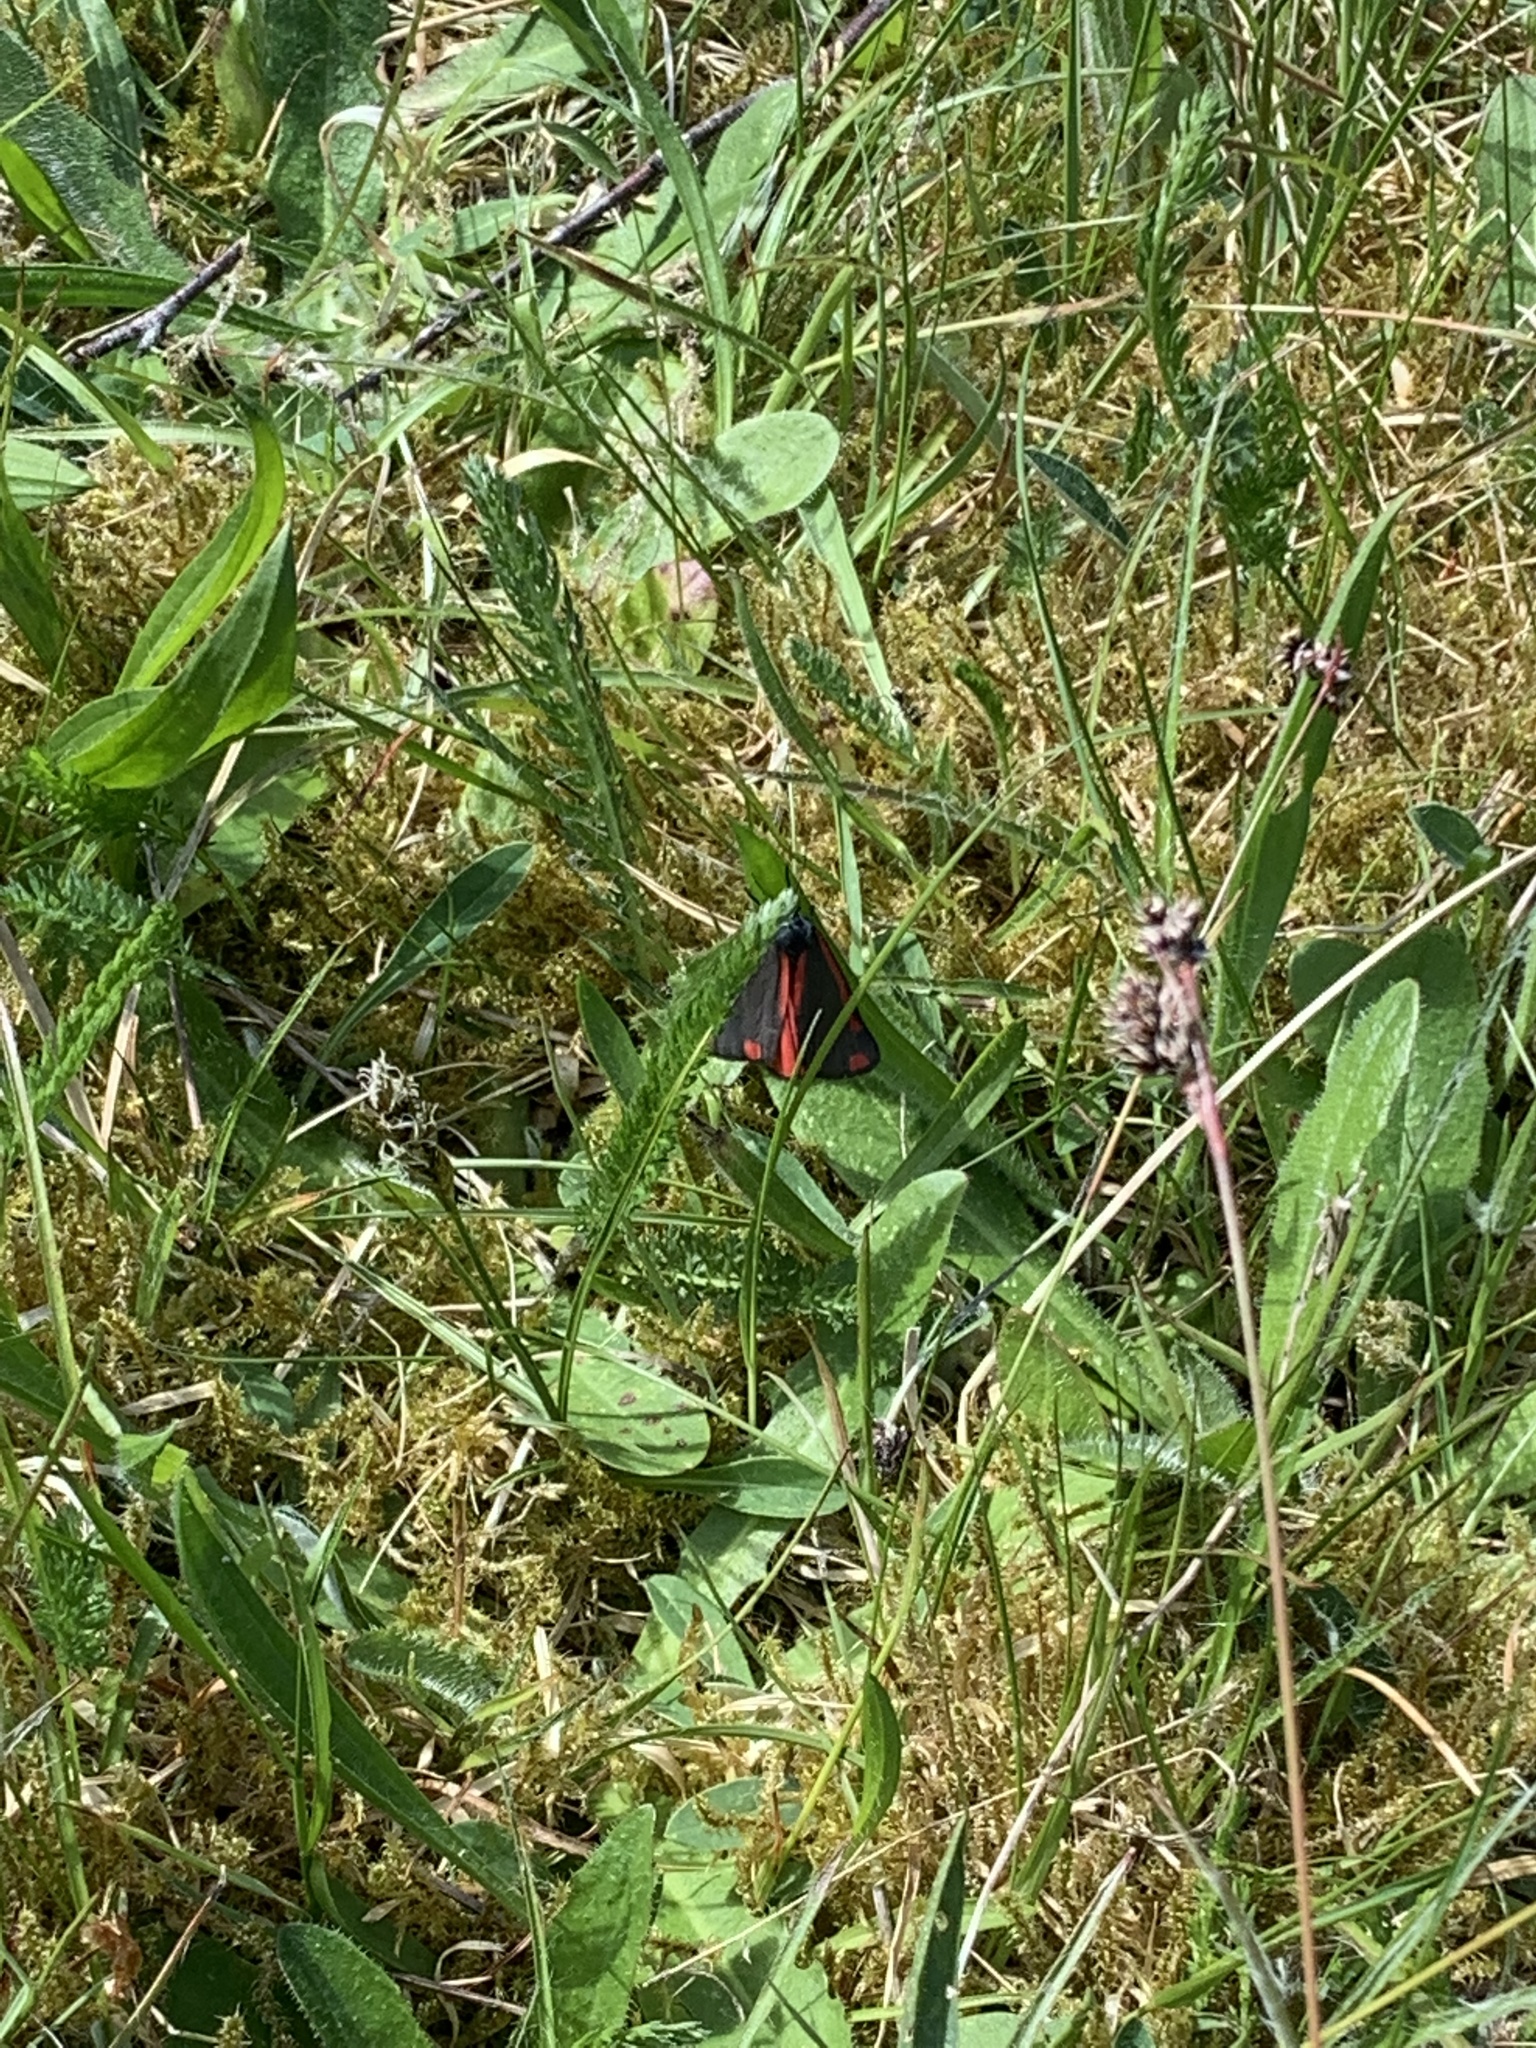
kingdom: Animalia
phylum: Arthropoda
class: Insecta
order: Lepidoptera
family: Erebidae
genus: Tyria
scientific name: Tyria jacobaeae
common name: Cinnabar
